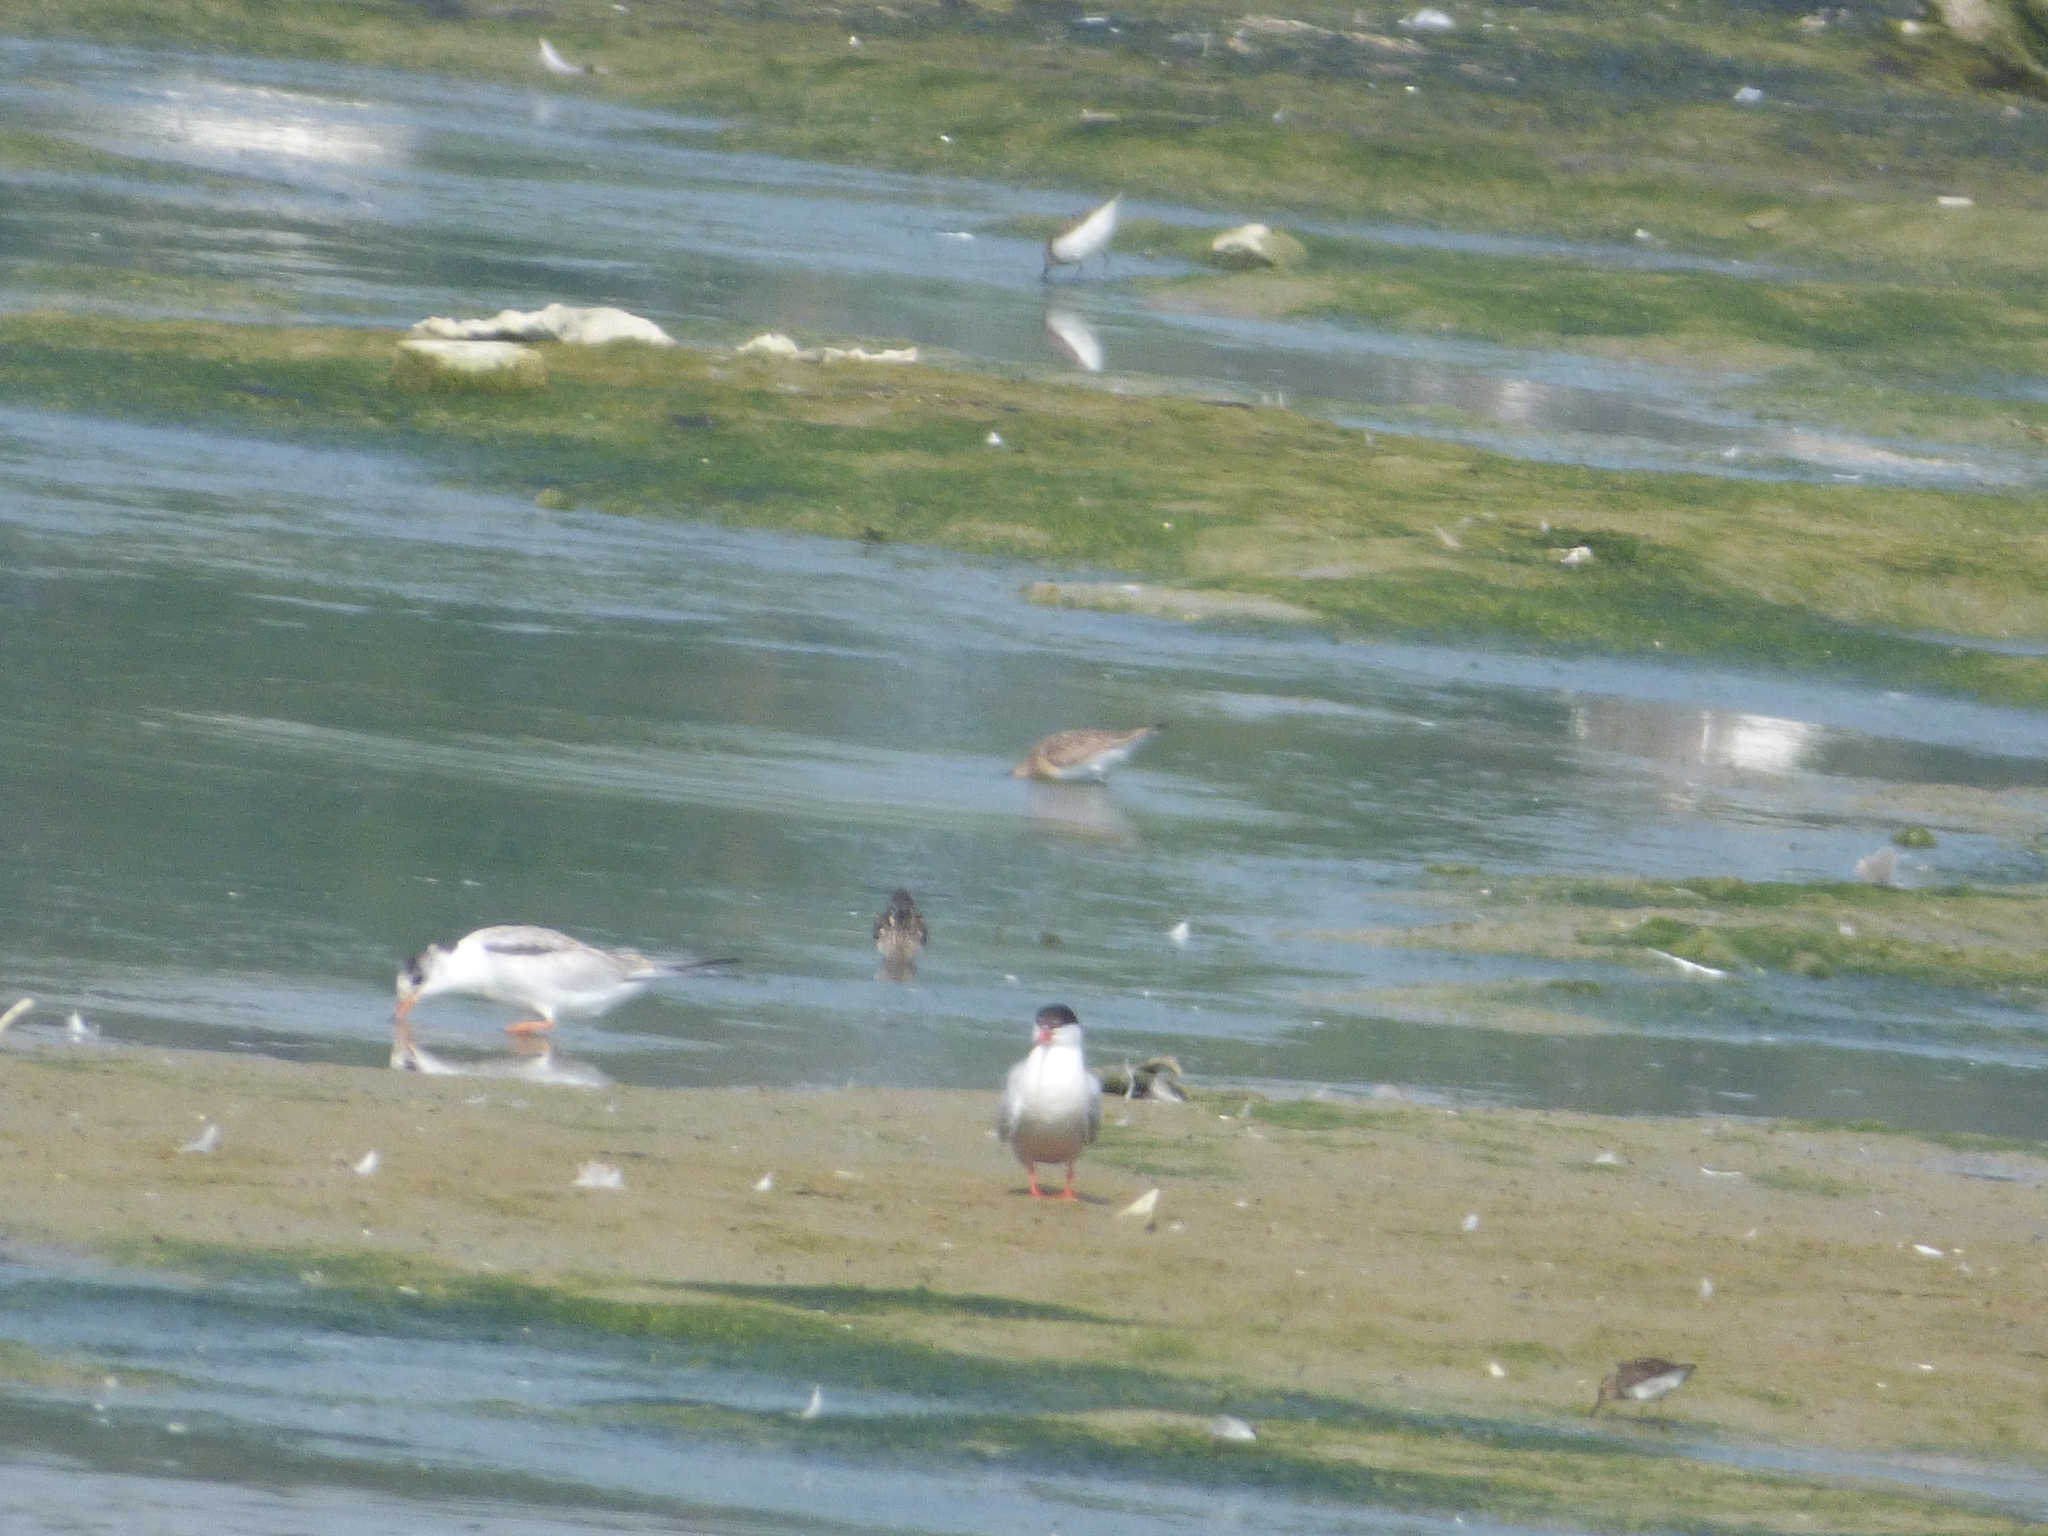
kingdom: Animalia
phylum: Chordata
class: Aves
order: Charadriiformes
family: Scolopacidae
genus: Calidris
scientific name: Calidris minutilla
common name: Least sandpiper
